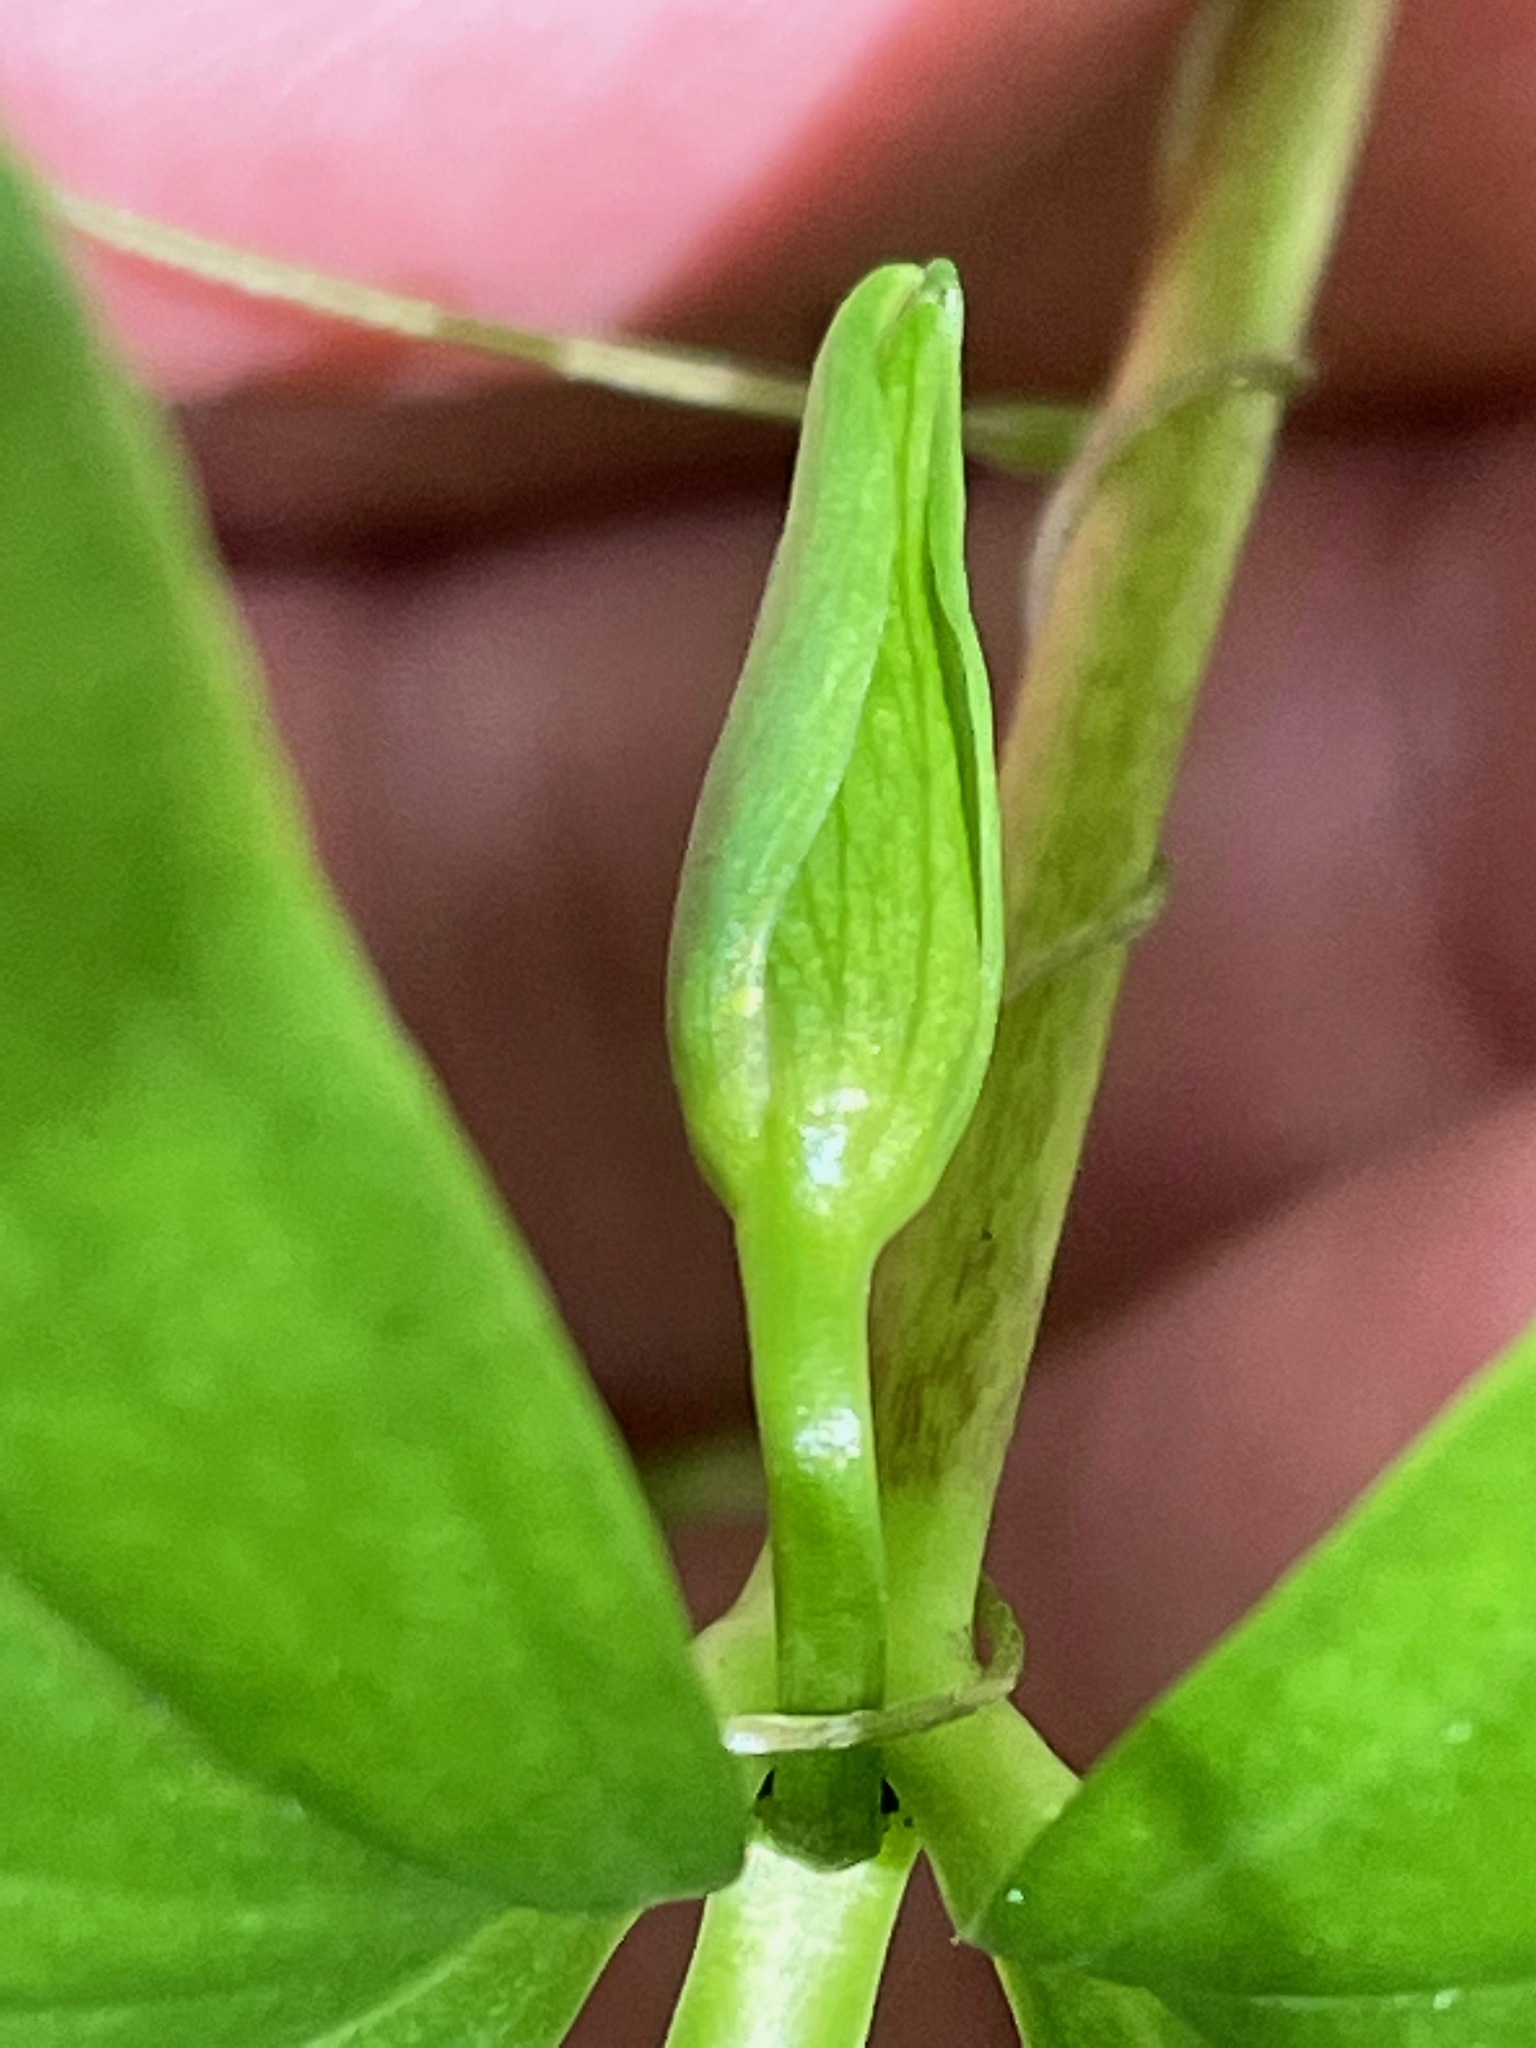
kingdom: Plantae
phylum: Tracheophyta
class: Liliopsida
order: Liliales
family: Melanthiaceae
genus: Trillium
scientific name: Trillium cernuum
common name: Nodding trillium
